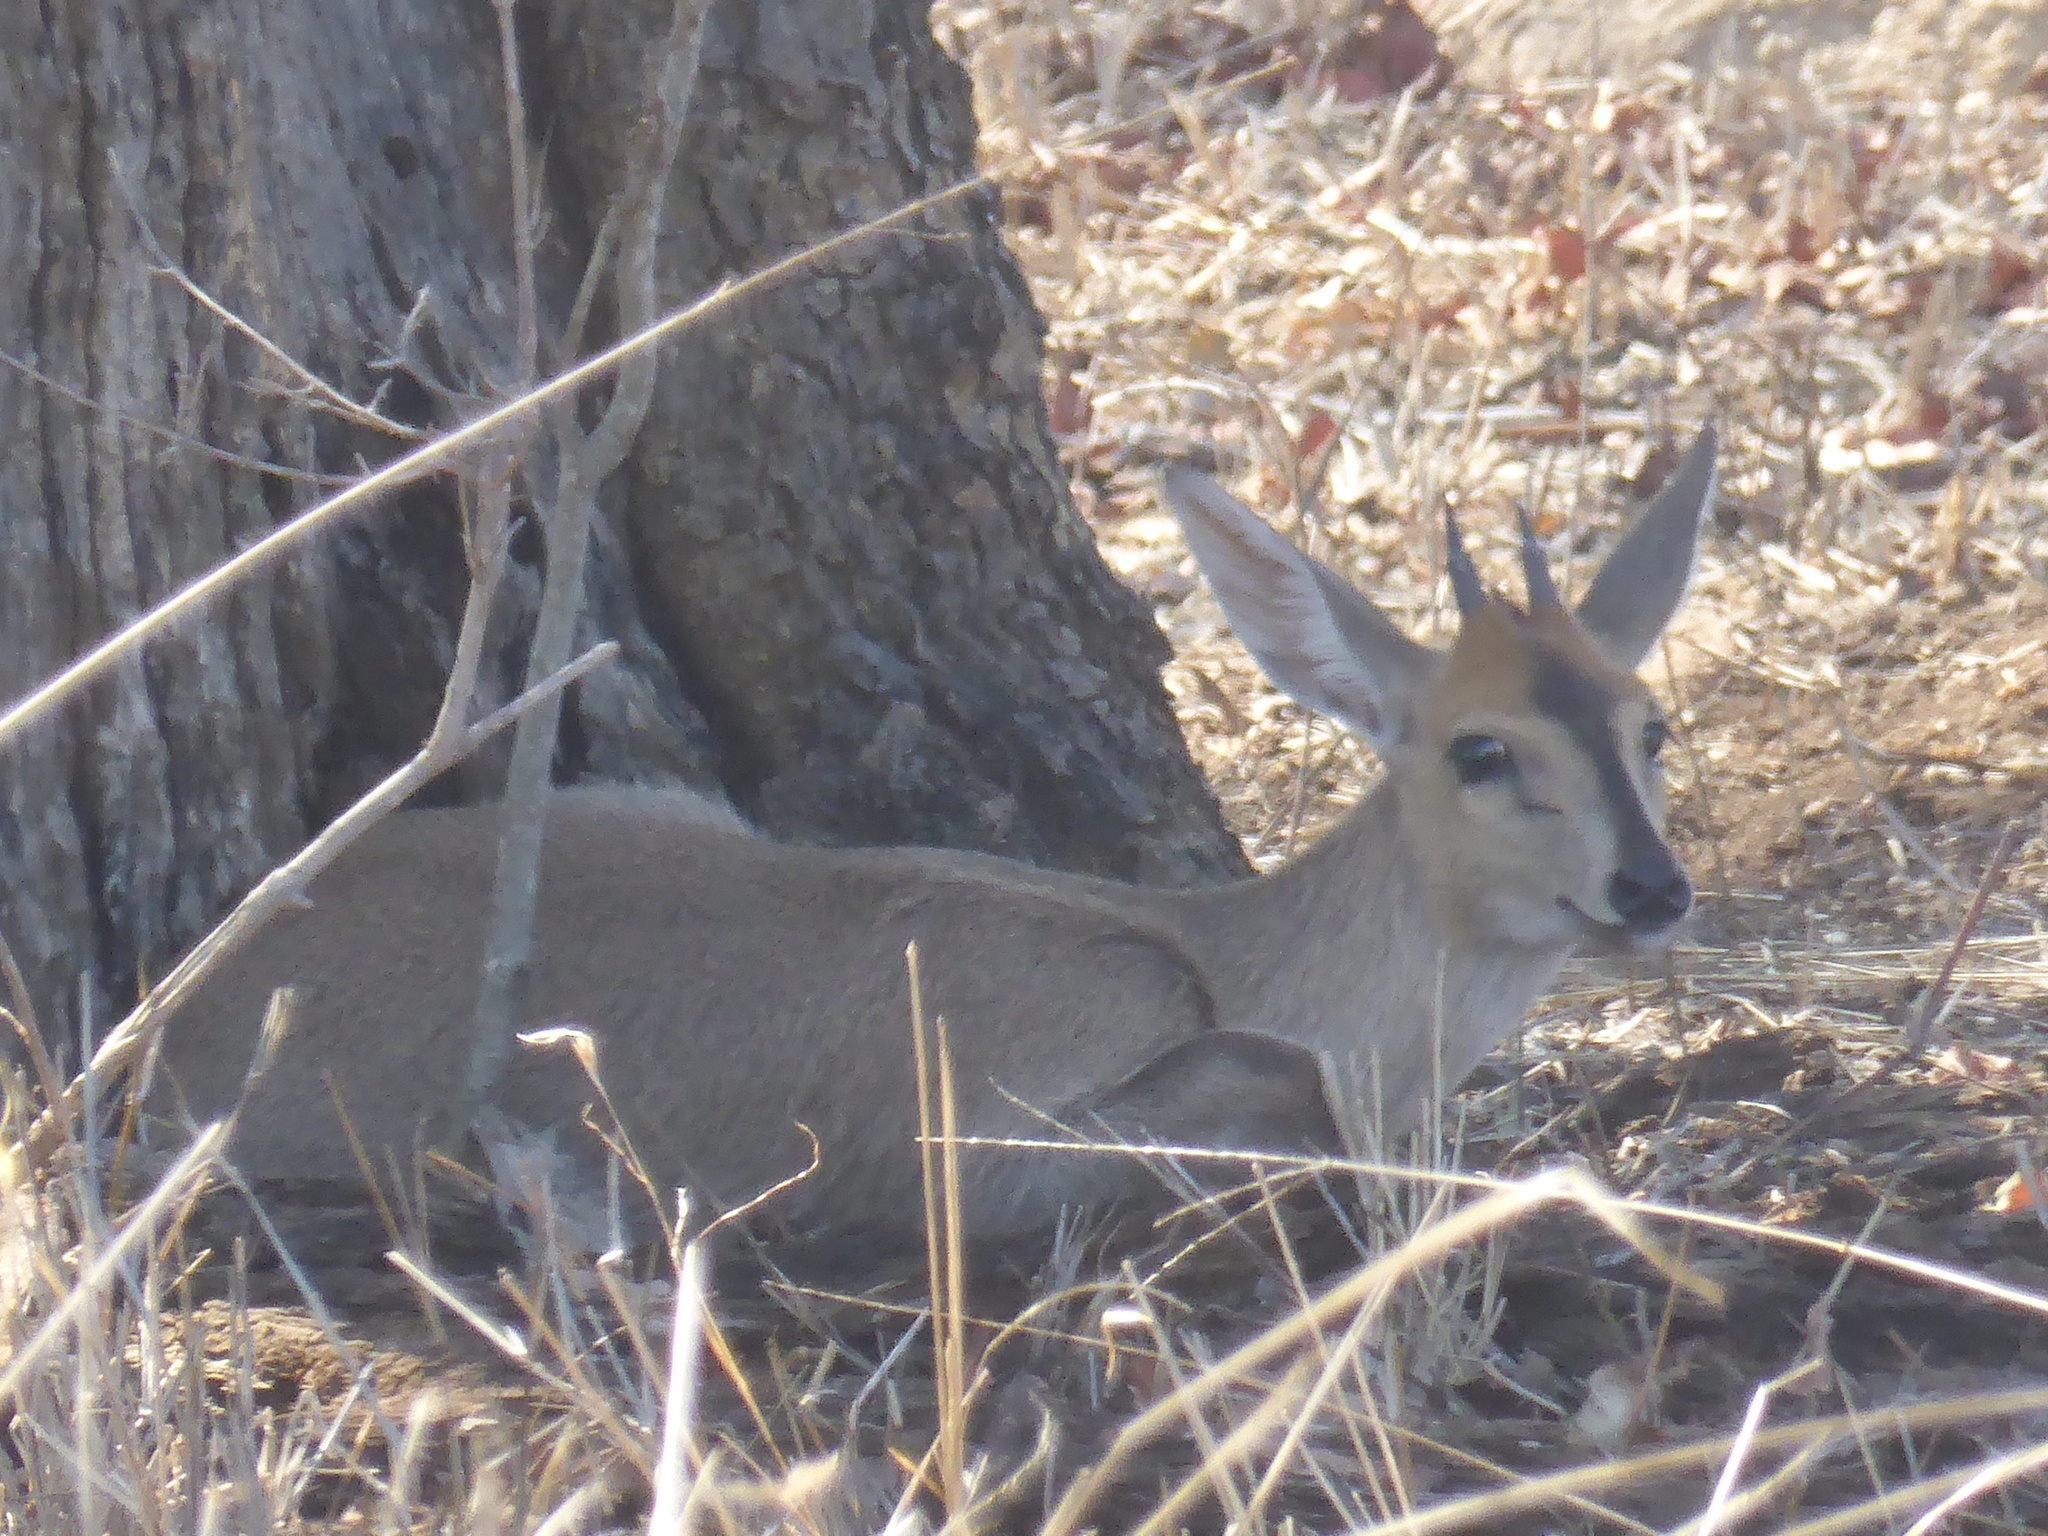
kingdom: Animalia
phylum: Chordata
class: Mammalia
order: Artiodactyla
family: Bovidae
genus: Sylvicapra
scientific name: Sylvicapra grimmia
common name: Bush duiker
